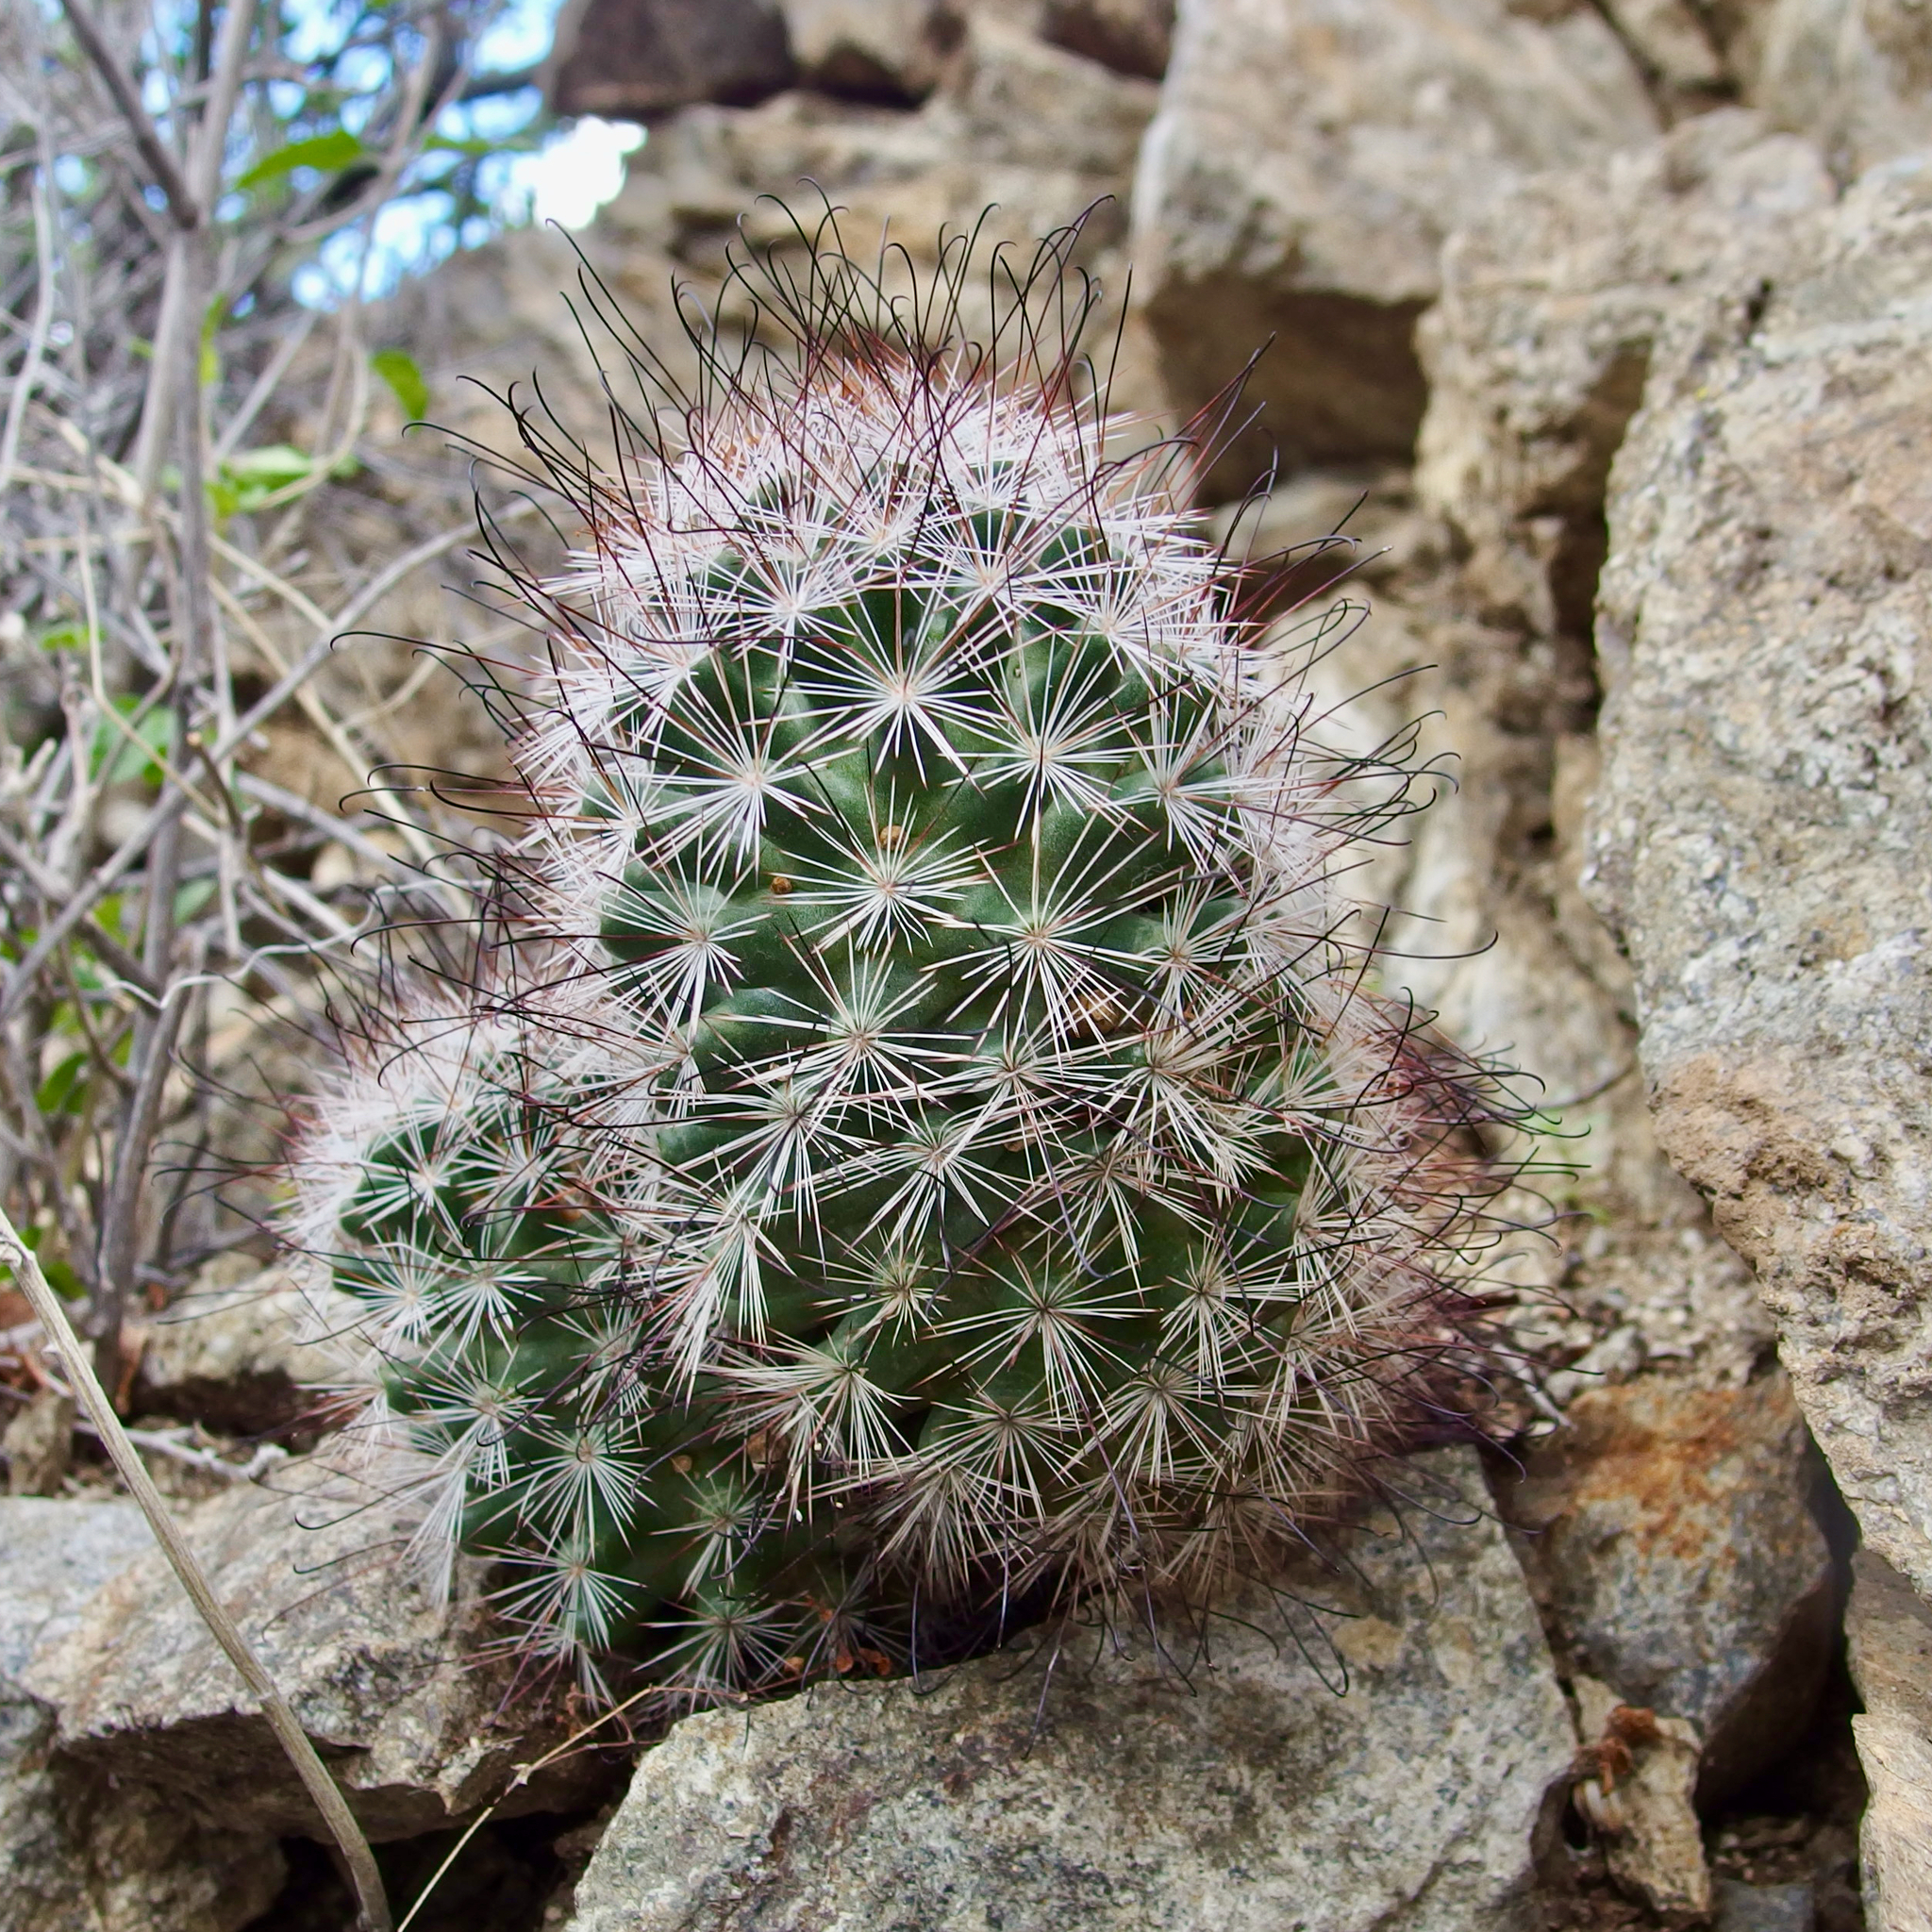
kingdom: Plantae
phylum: Tracheophyta
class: Magnoliopsida
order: Caryophyllales
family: Cactaceae
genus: Cochemiea
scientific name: Cochemiea tetrancistra
